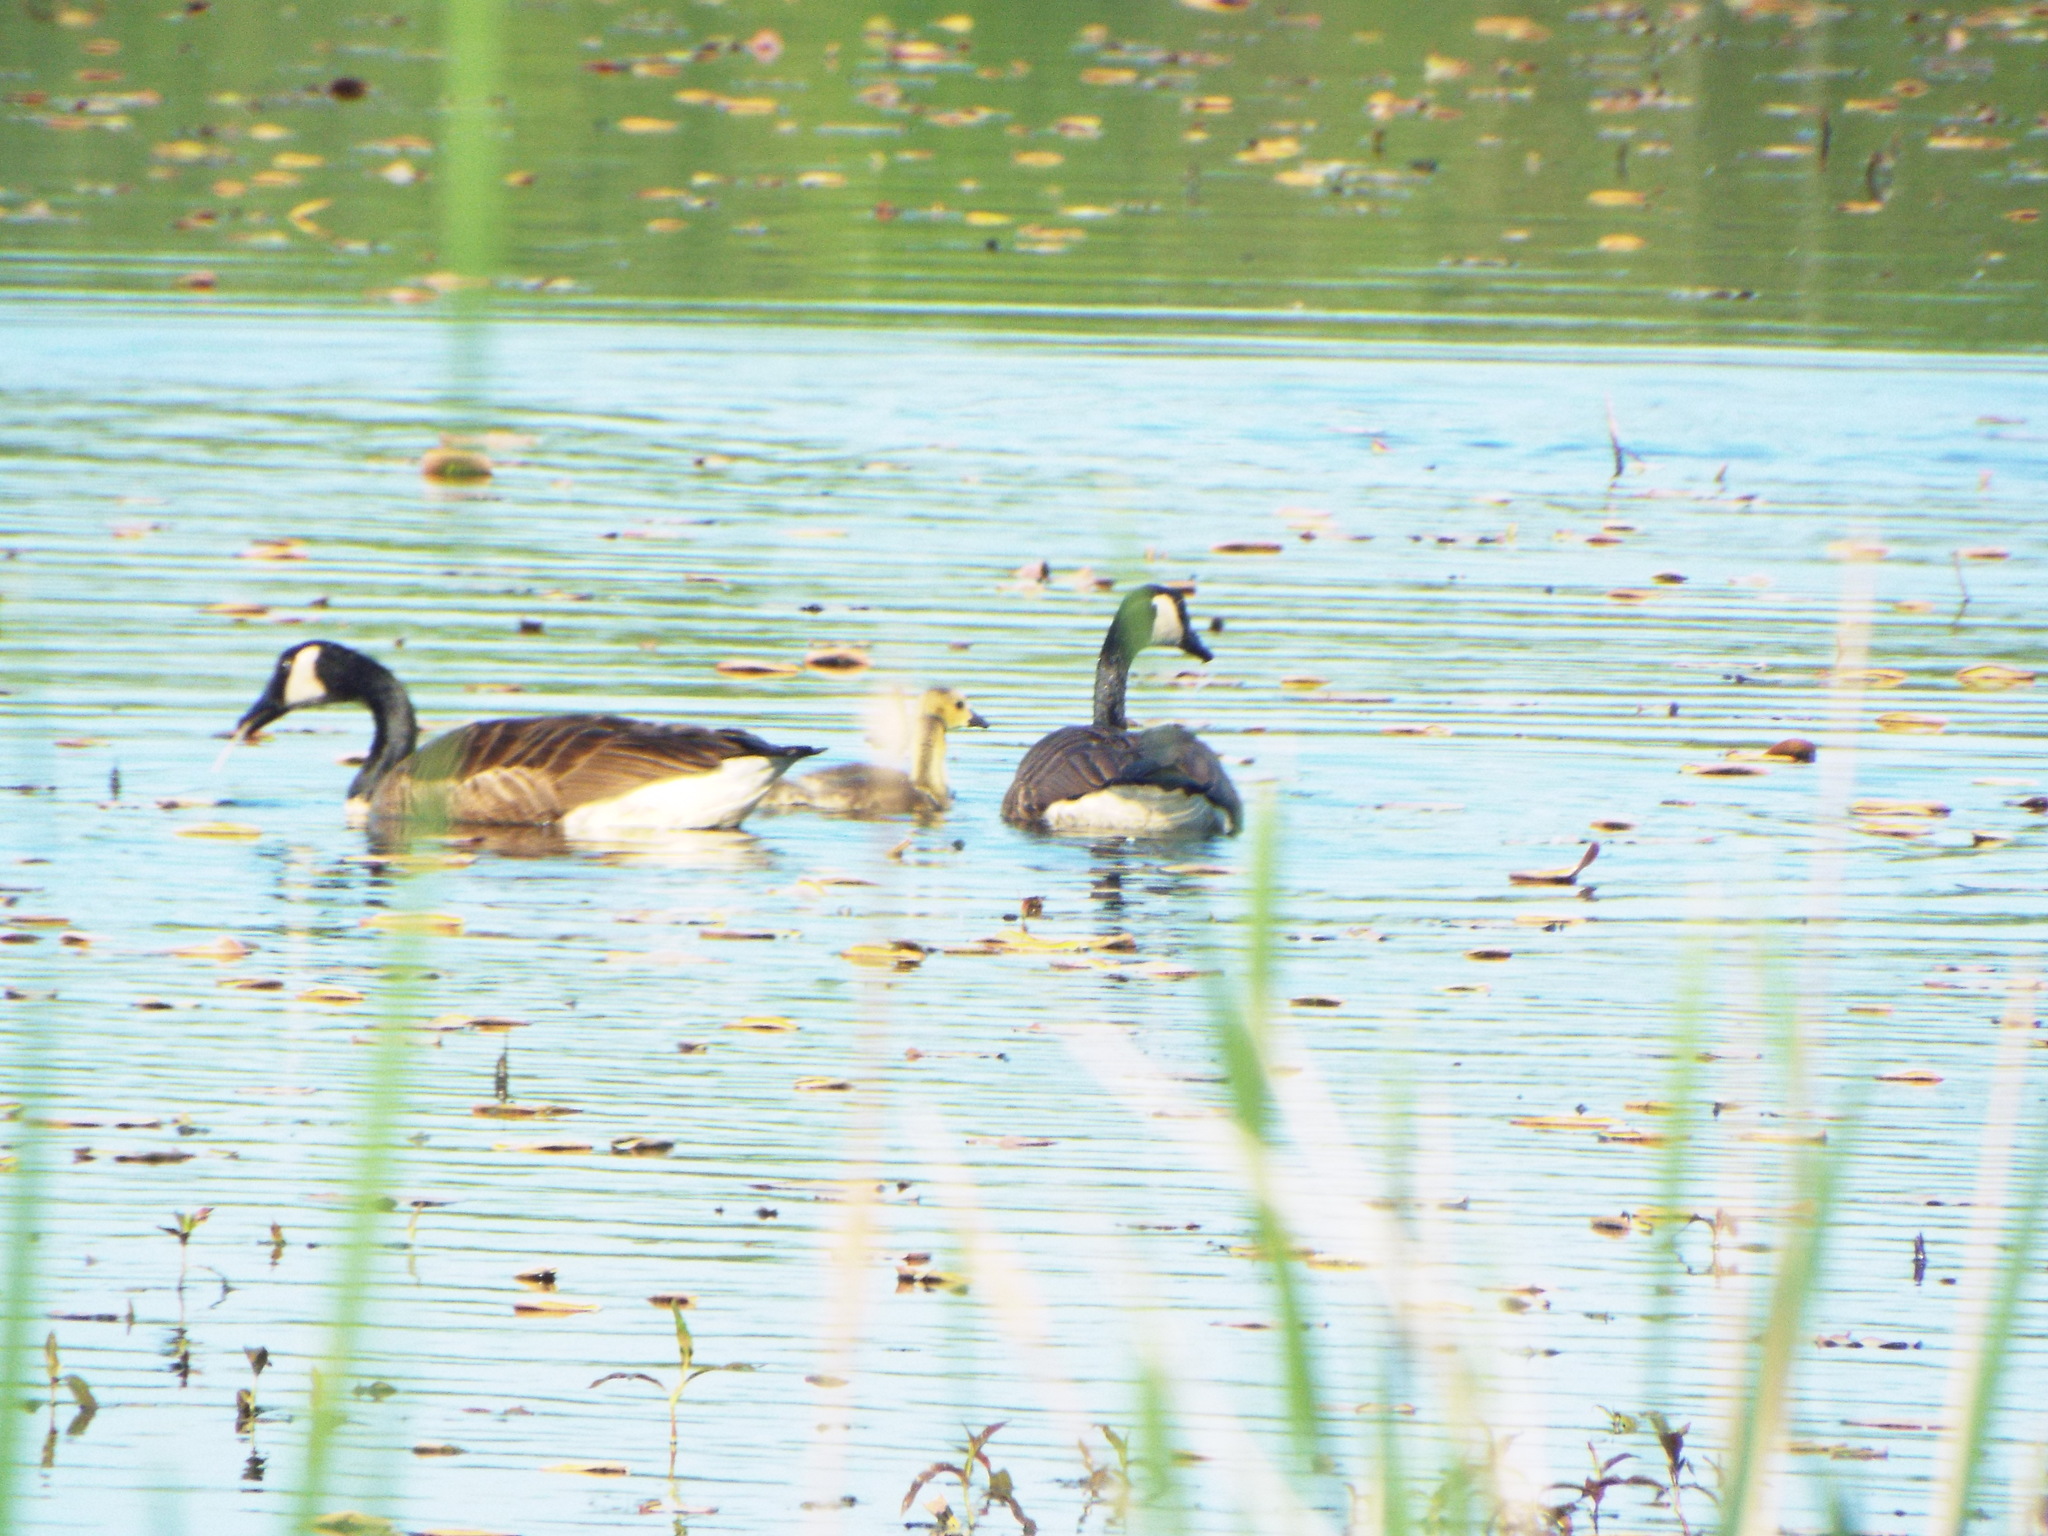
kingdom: Animalia
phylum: Chordata
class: Aves
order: Anseriformes
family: Anatidae
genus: Branta
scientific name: Branta canadensis
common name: Canada goose
